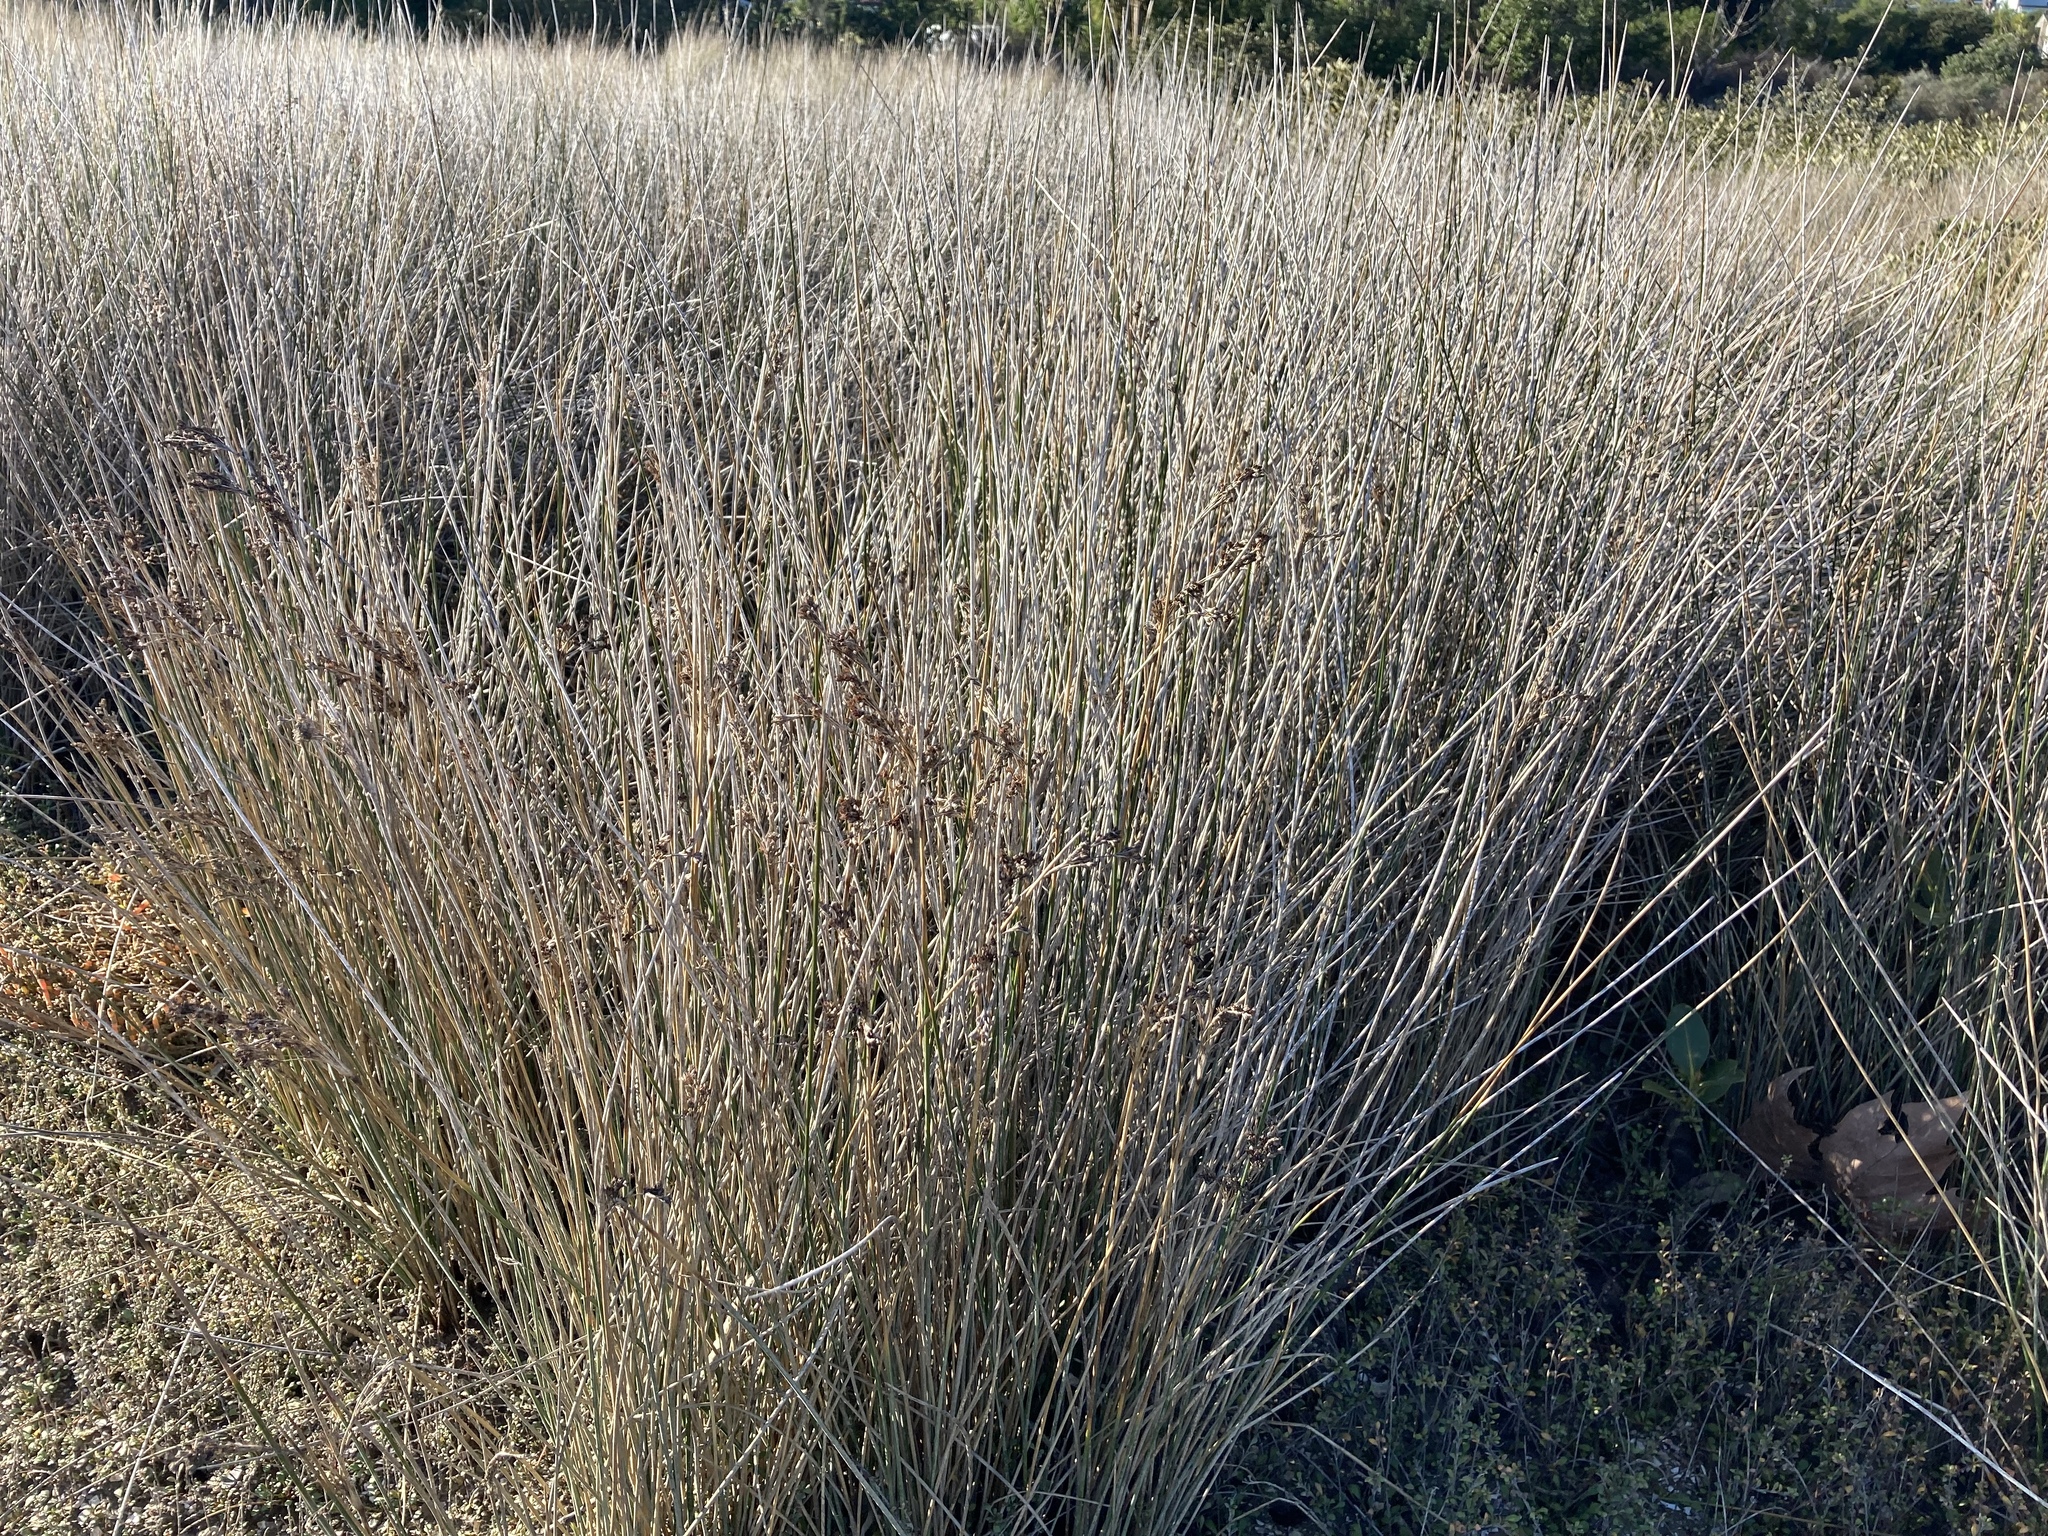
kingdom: Plantae
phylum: Tracheophyta
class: Liliopsida
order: Poales
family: Juncaceae
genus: Juncus
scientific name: Juncus kraussii
